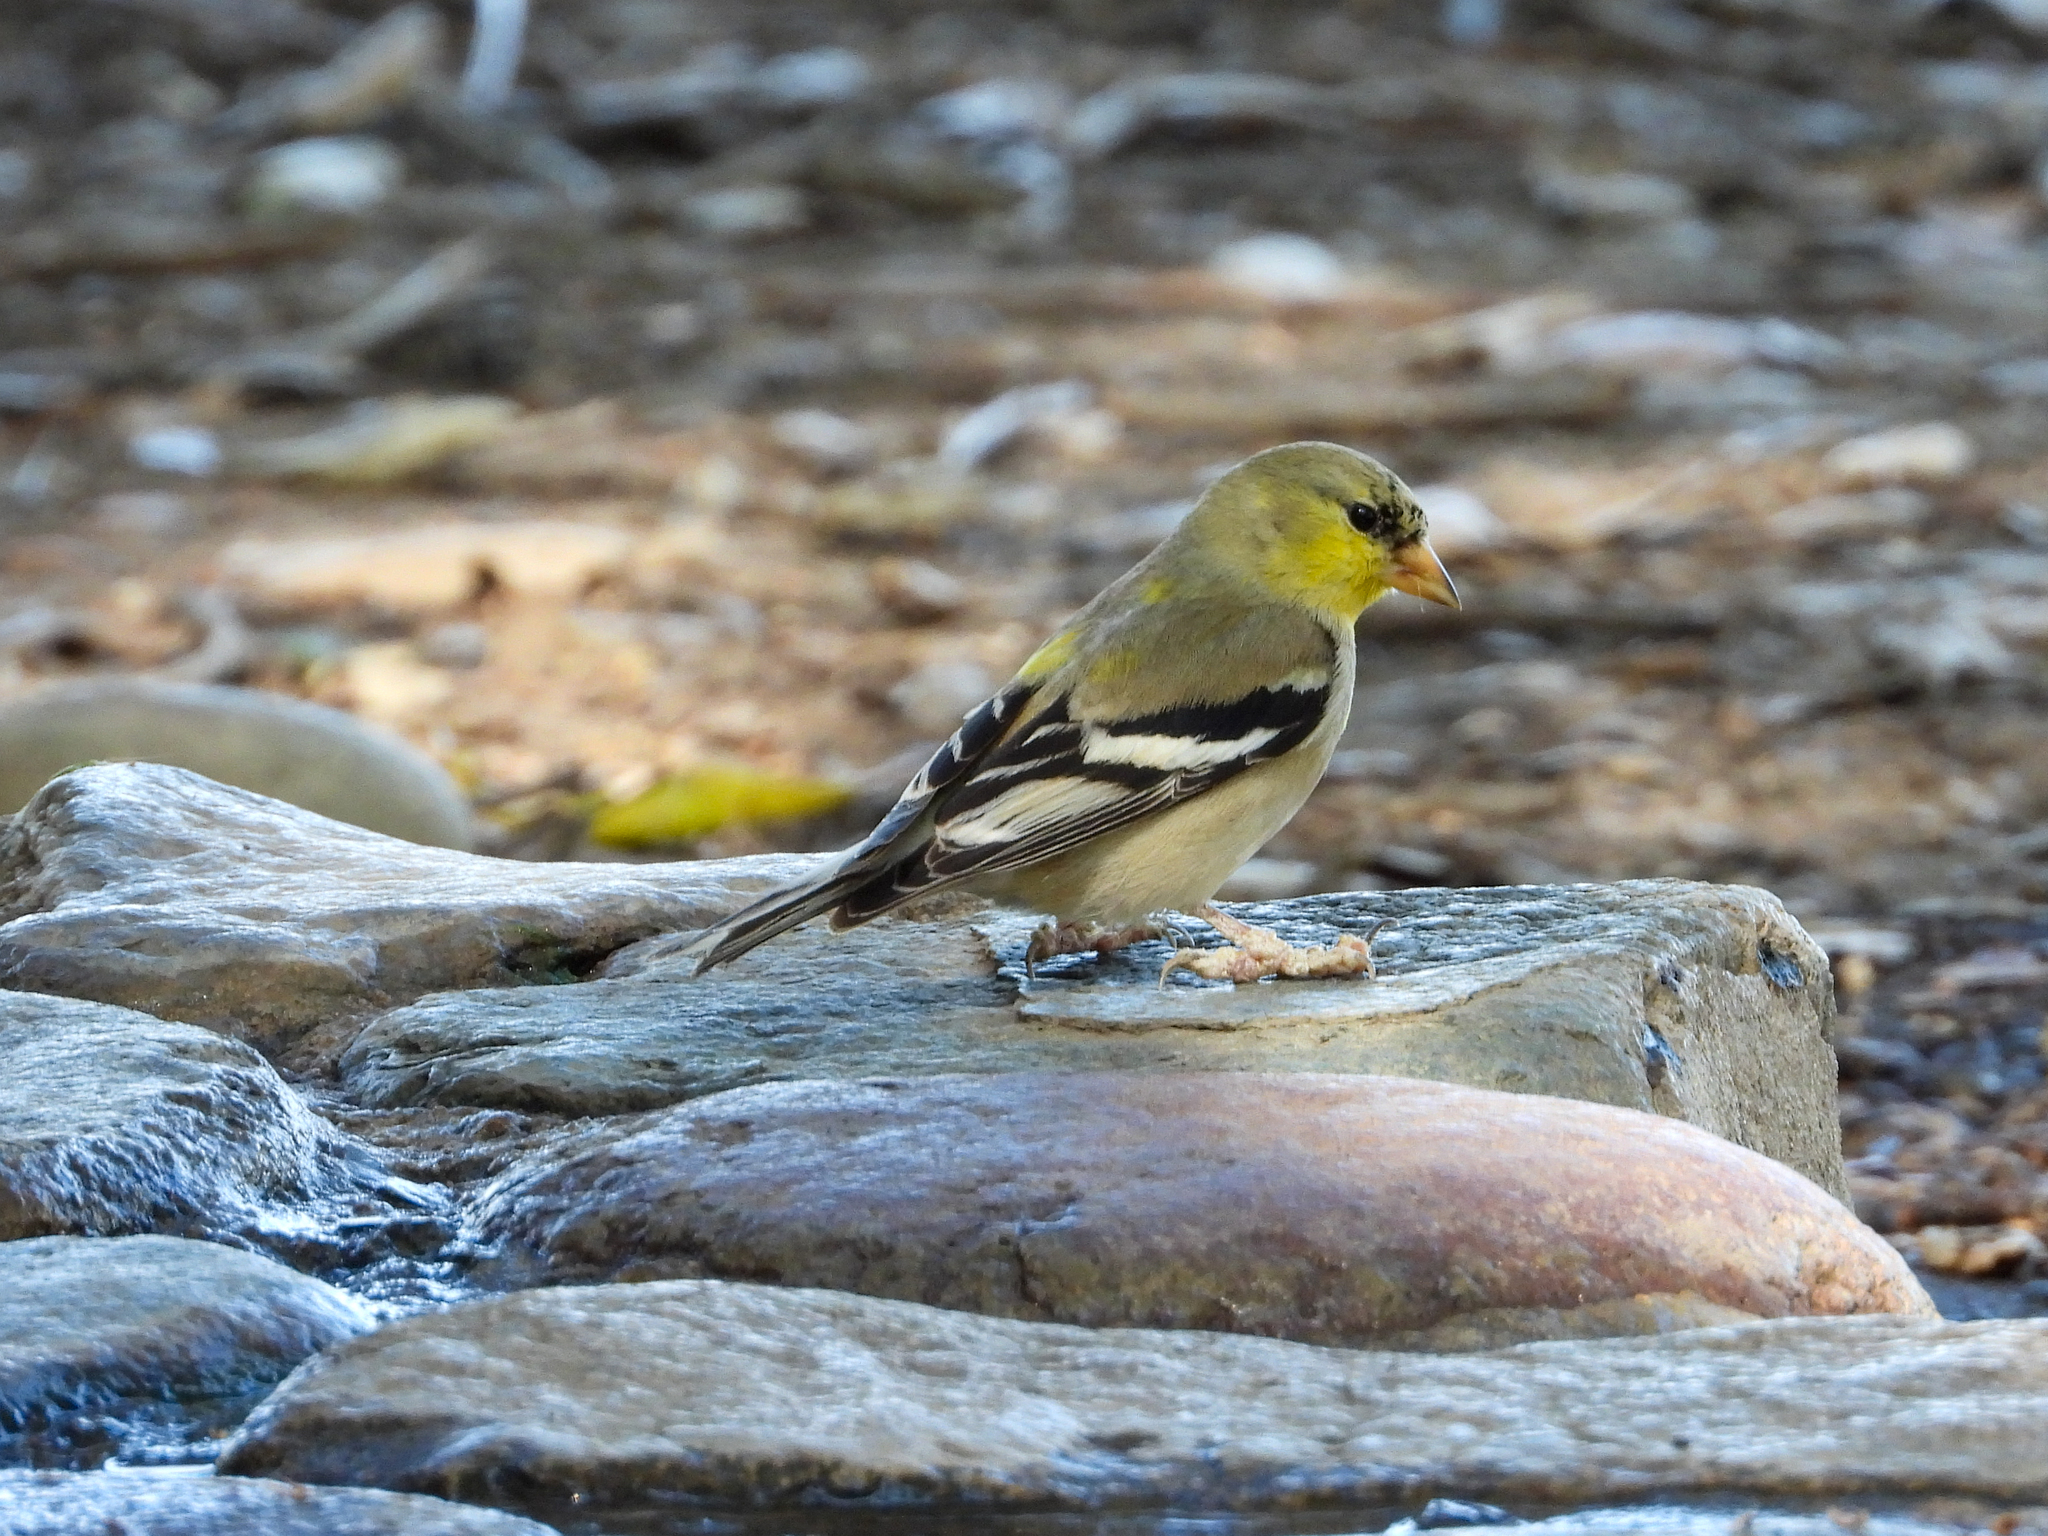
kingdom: Animalia
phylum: Chordata
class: Aves
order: Passeriformes
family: Fringillidae
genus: Spinus
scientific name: Spinus tristis
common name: American goldfinch
